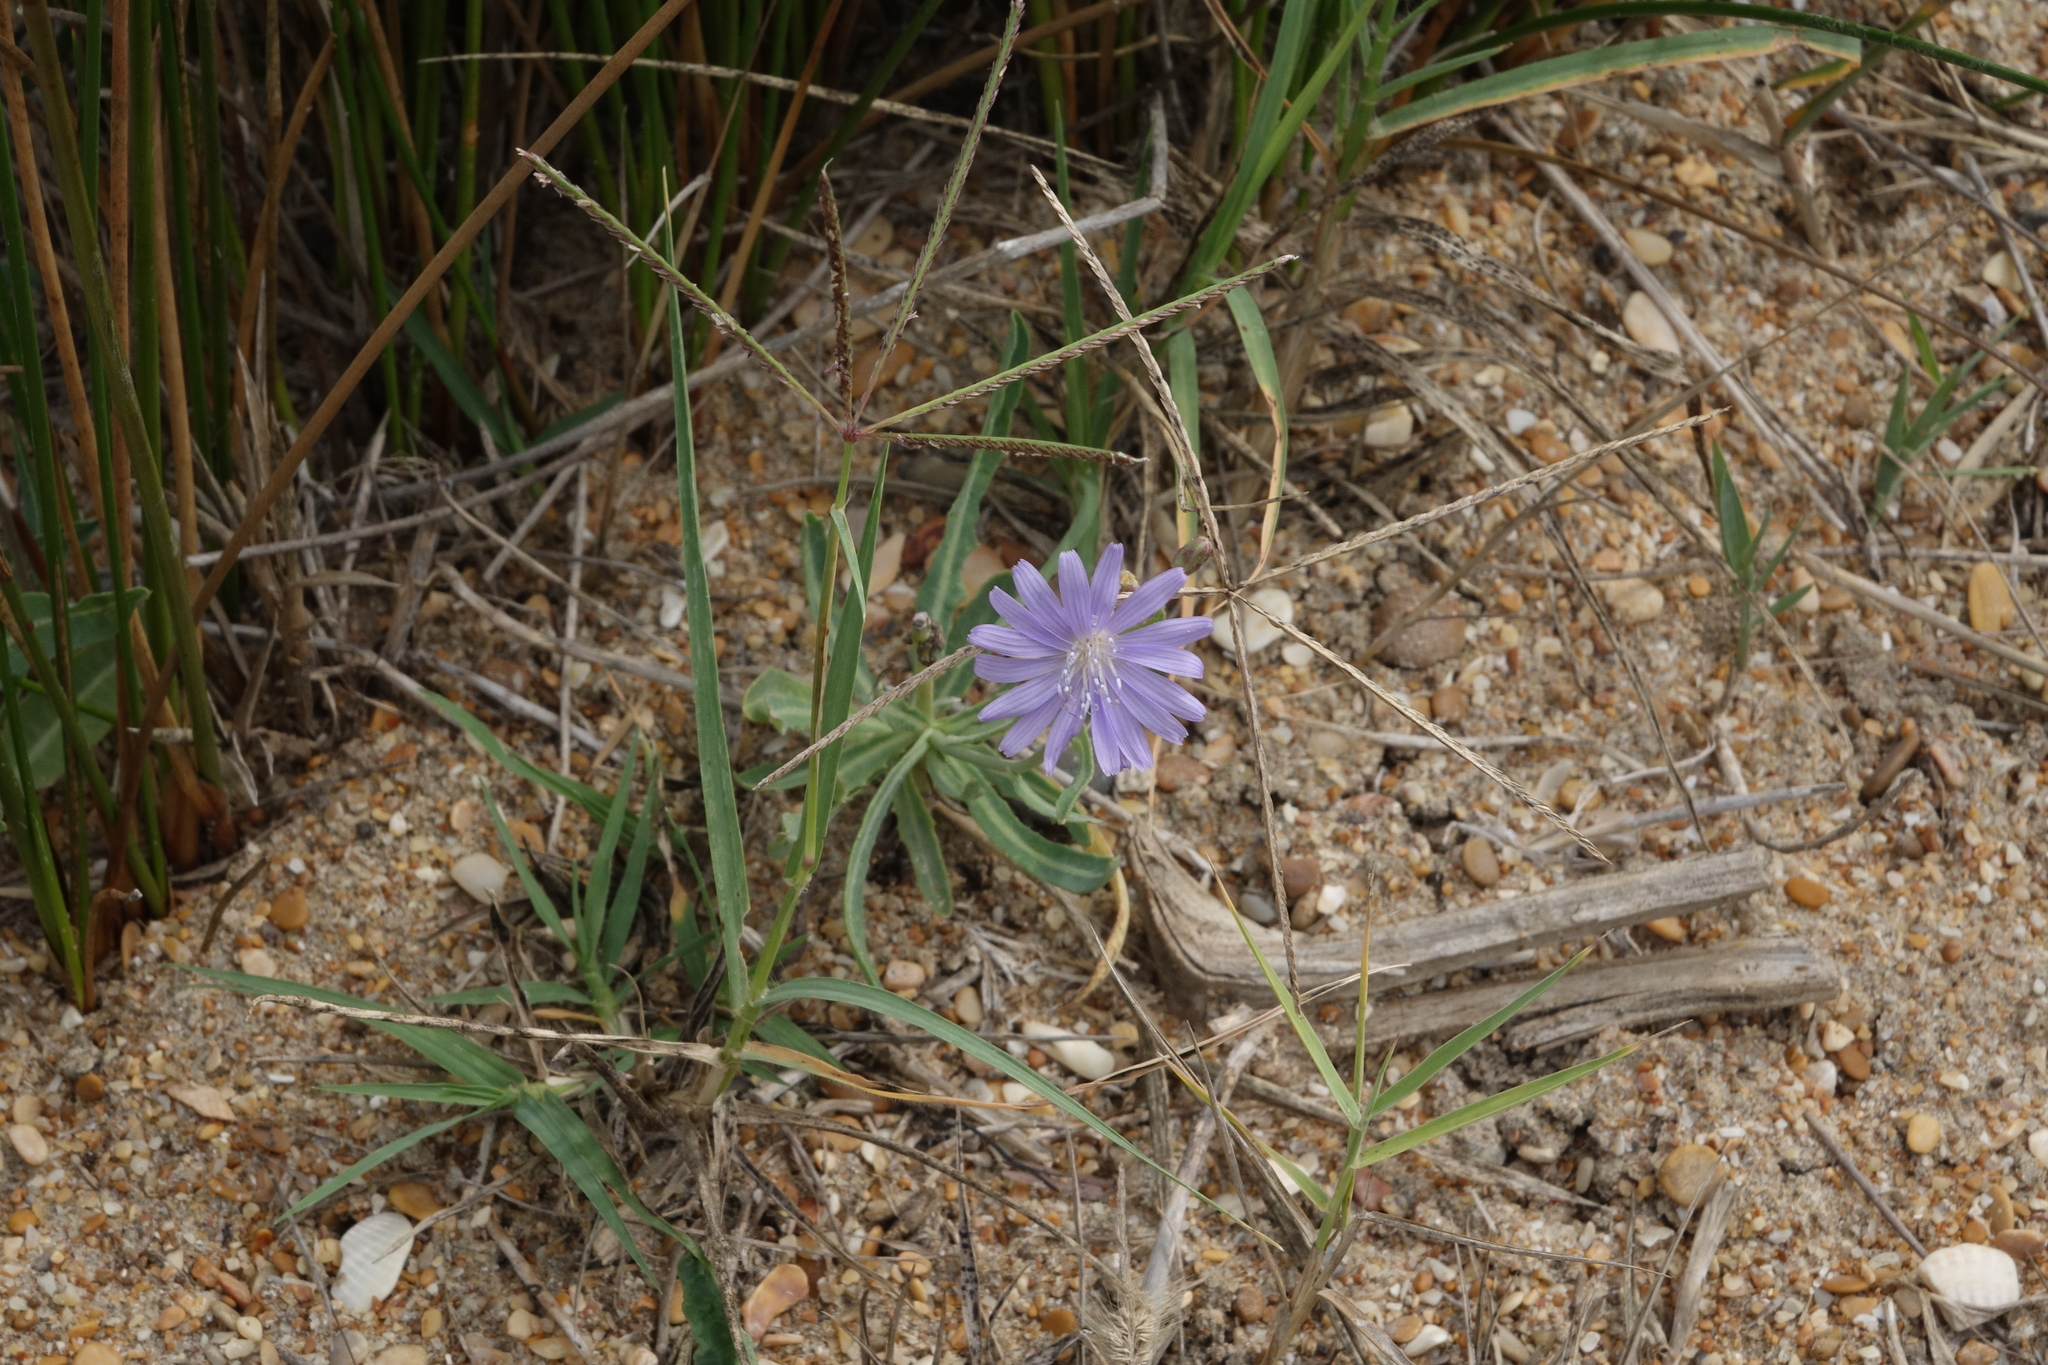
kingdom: Plantae
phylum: Tracheophyta
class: Magnoliopsida
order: Asterales
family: Asteraceae
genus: Lactuca
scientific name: Lactuca tatarica
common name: Blue lettuce
